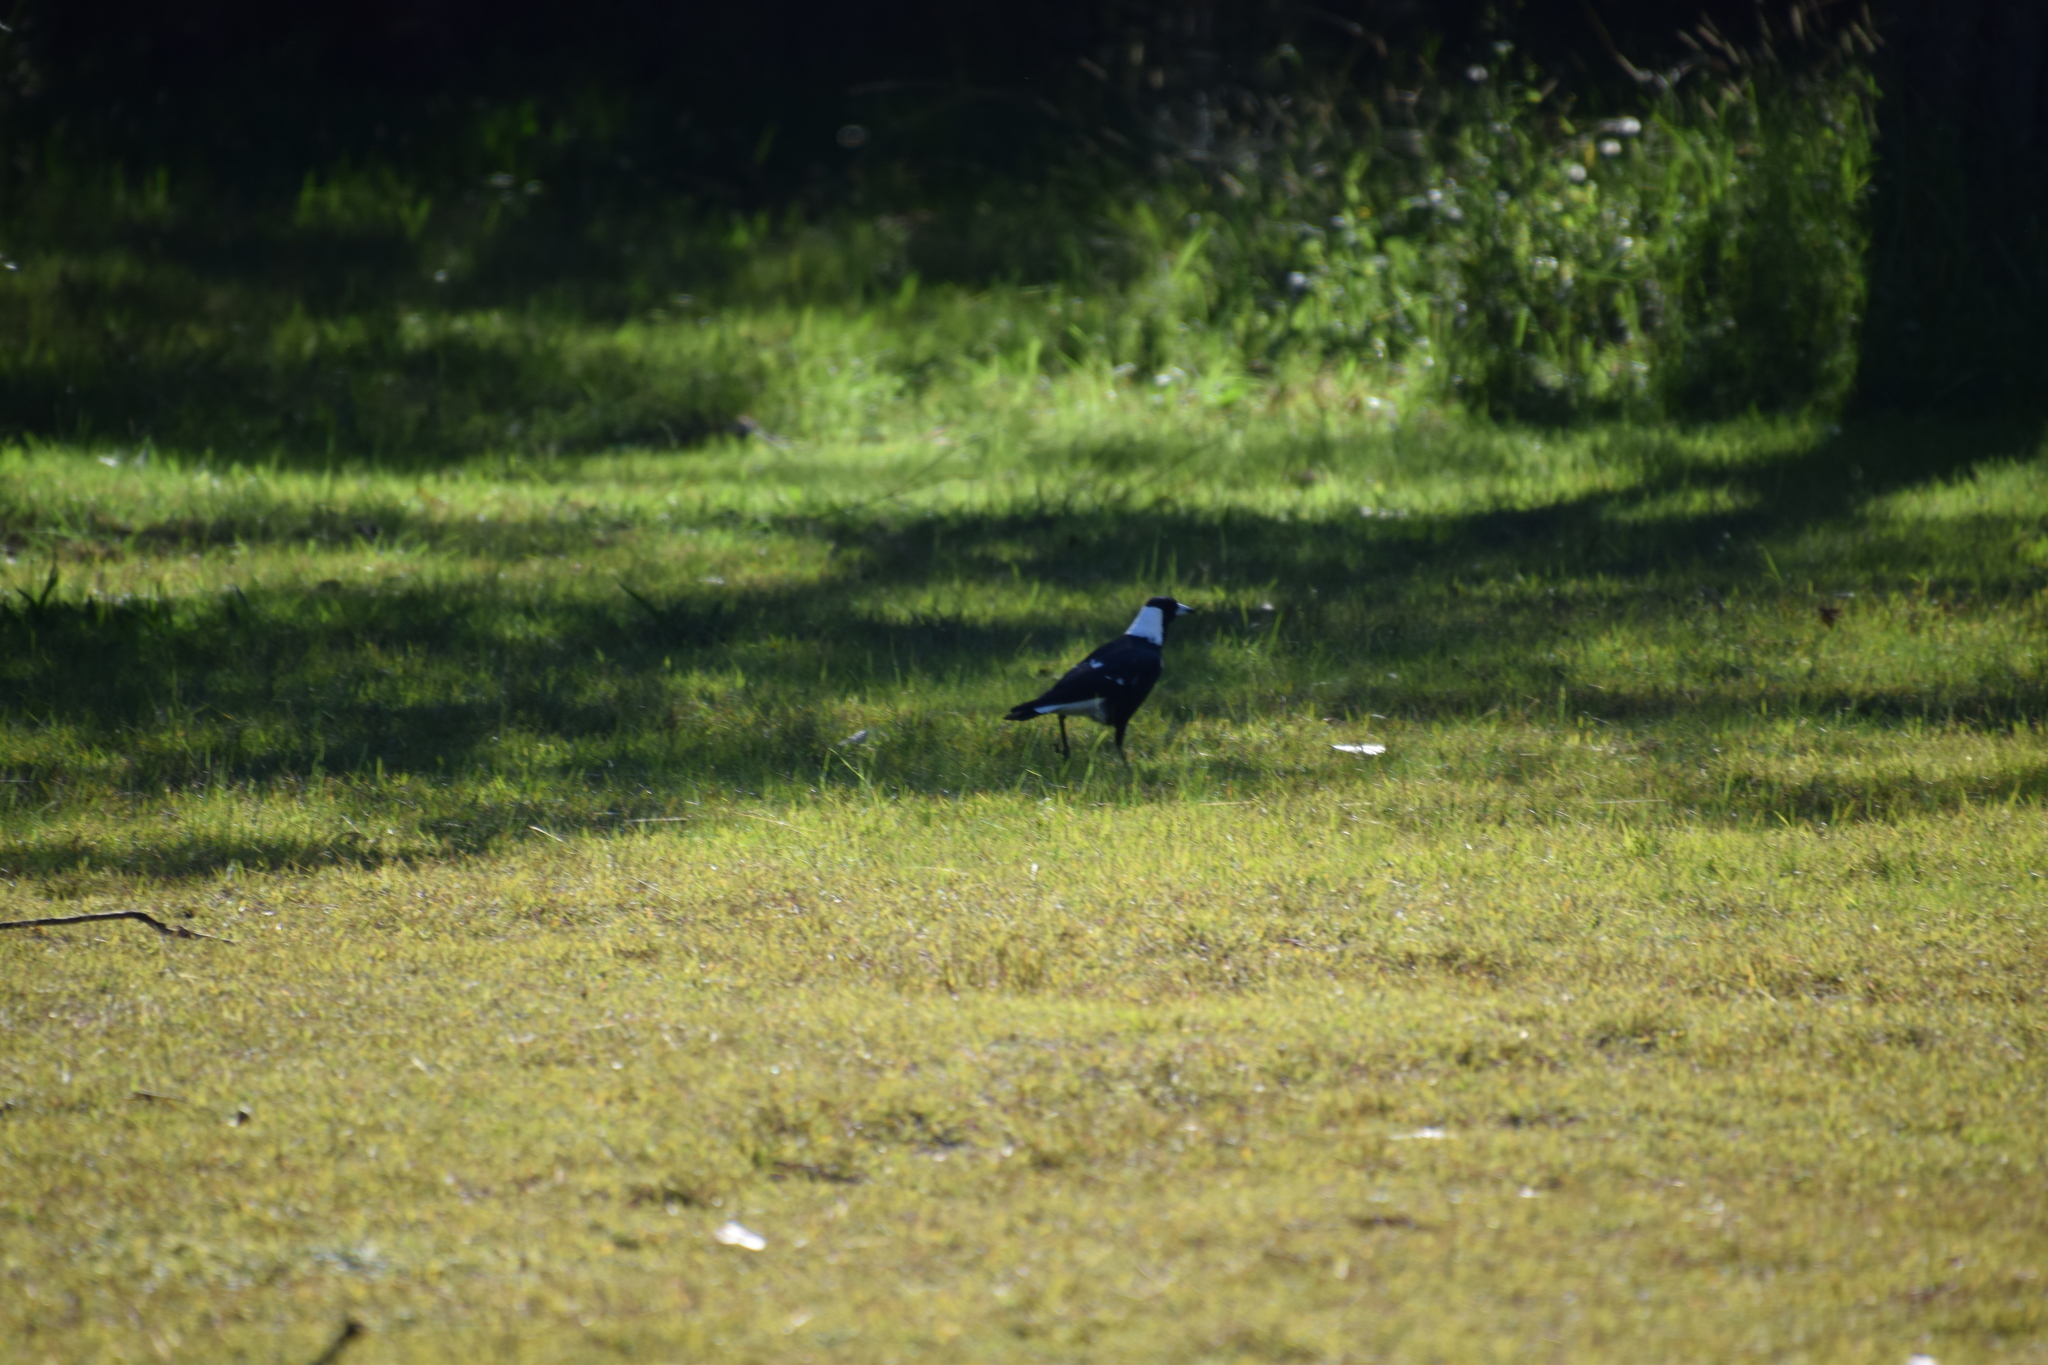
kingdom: Animalia
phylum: Chordata
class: Aves
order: Passeriformes
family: Cracticidae
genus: Gymnorhina
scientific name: Gymnorhina tibicen
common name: Australian magpie
